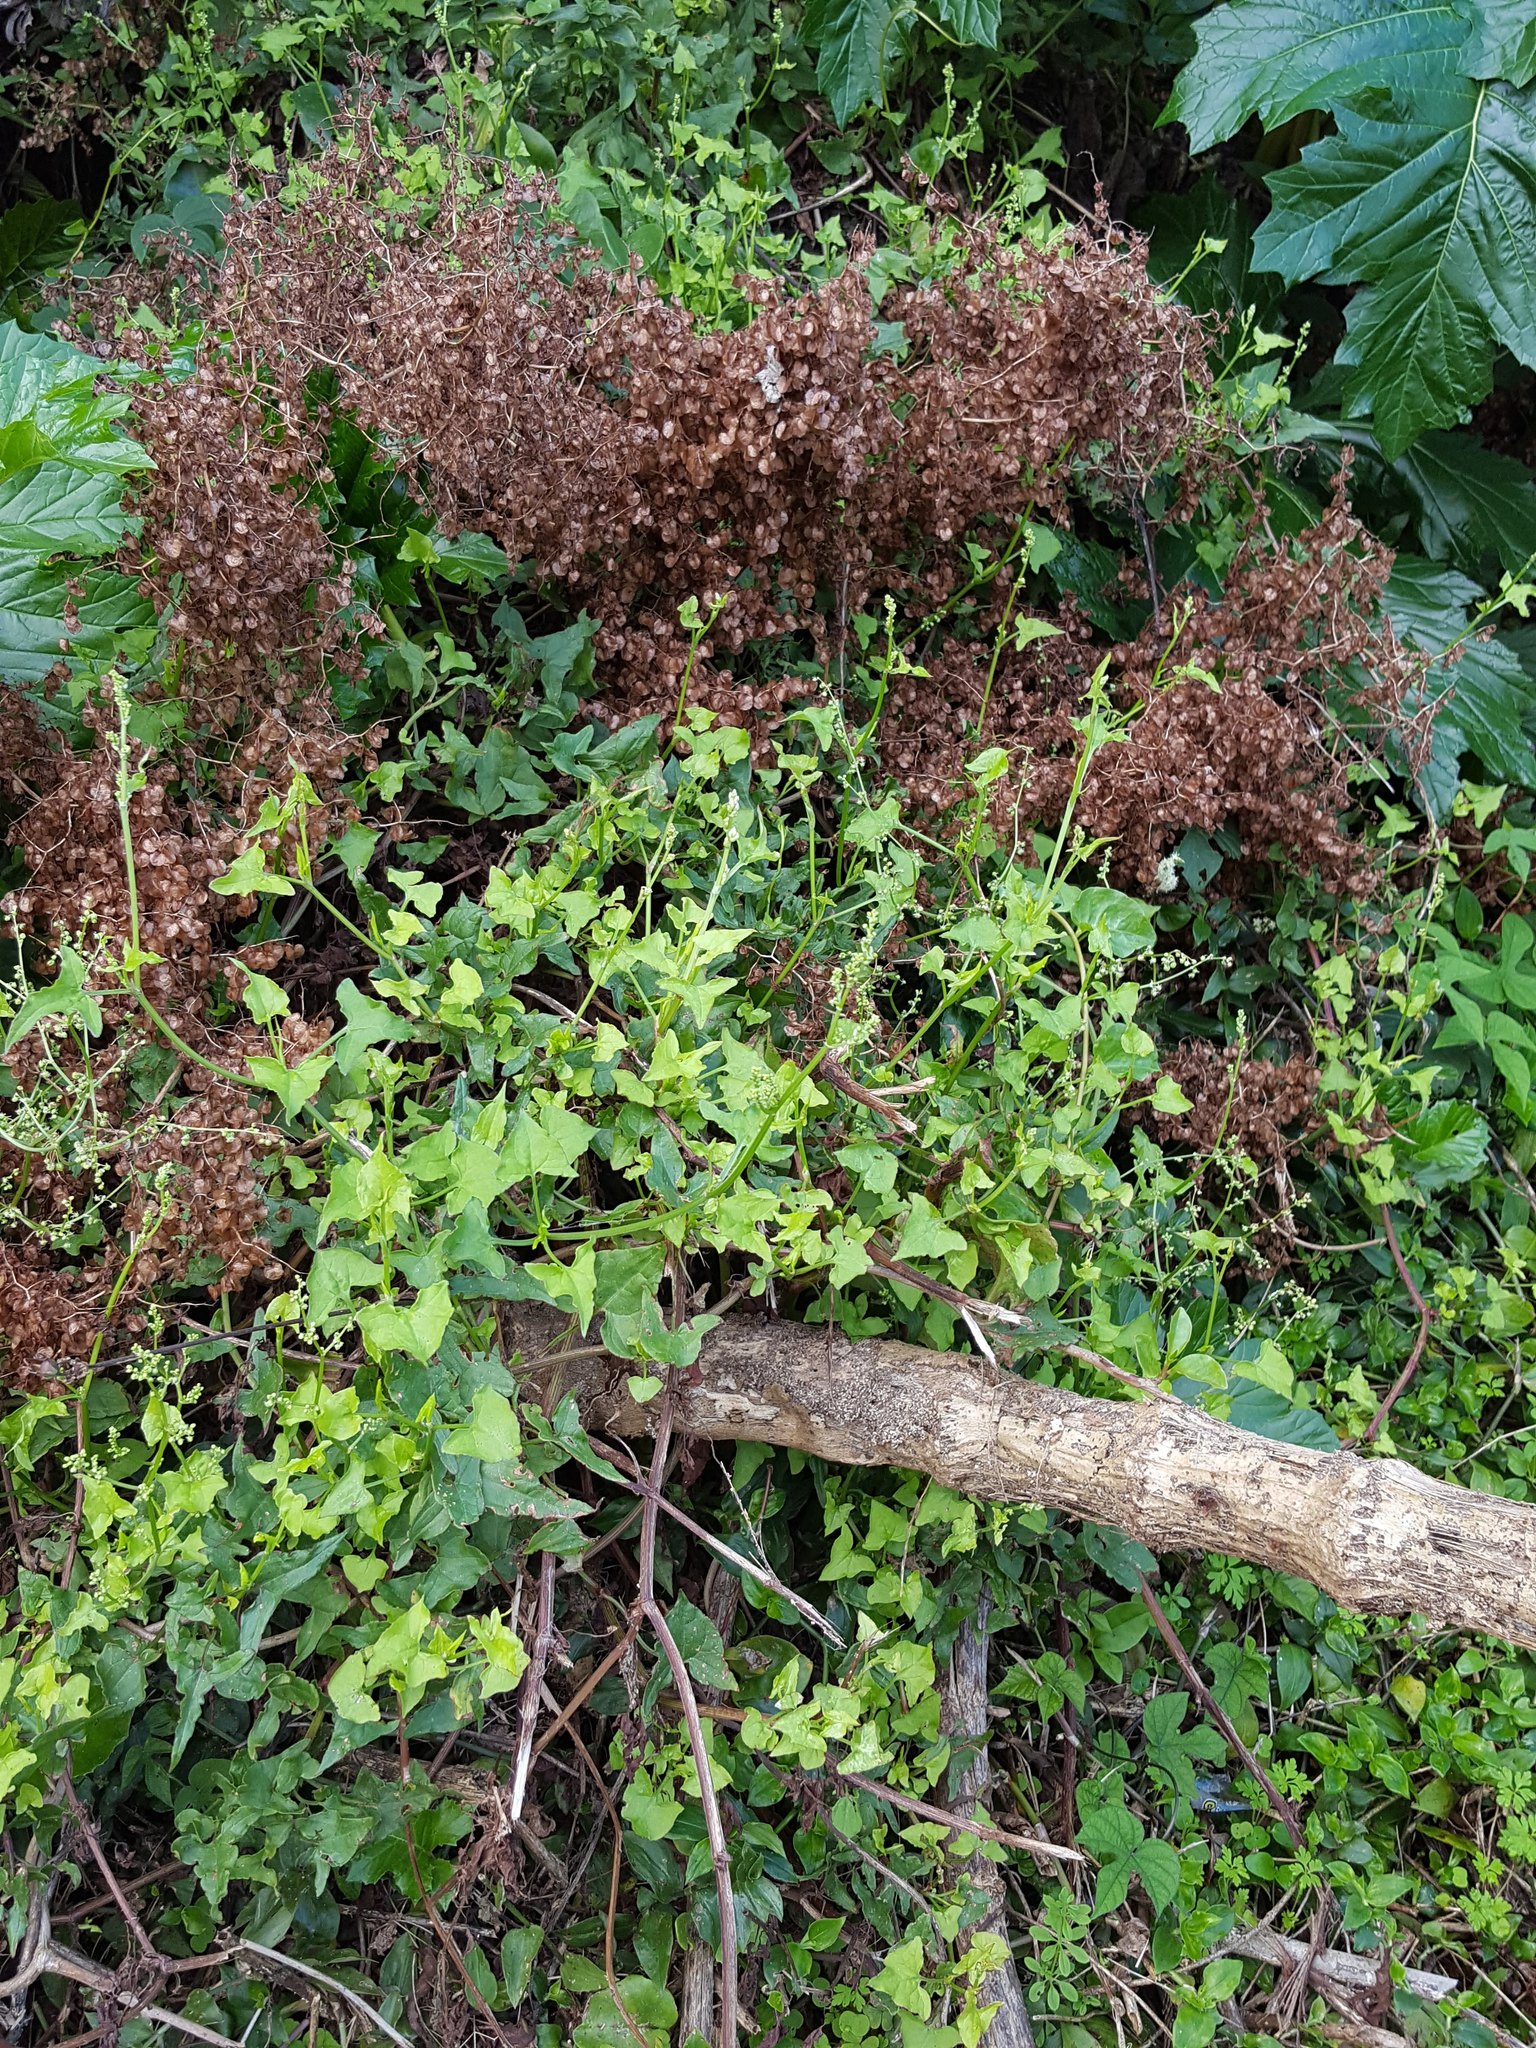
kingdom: Plantae
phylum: Tracheophyta
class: Magnoliopsida
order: Caryophyllales
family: Polygonaceae
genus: Rumex
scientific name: Rumex sagittatus
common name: Climbing dock
